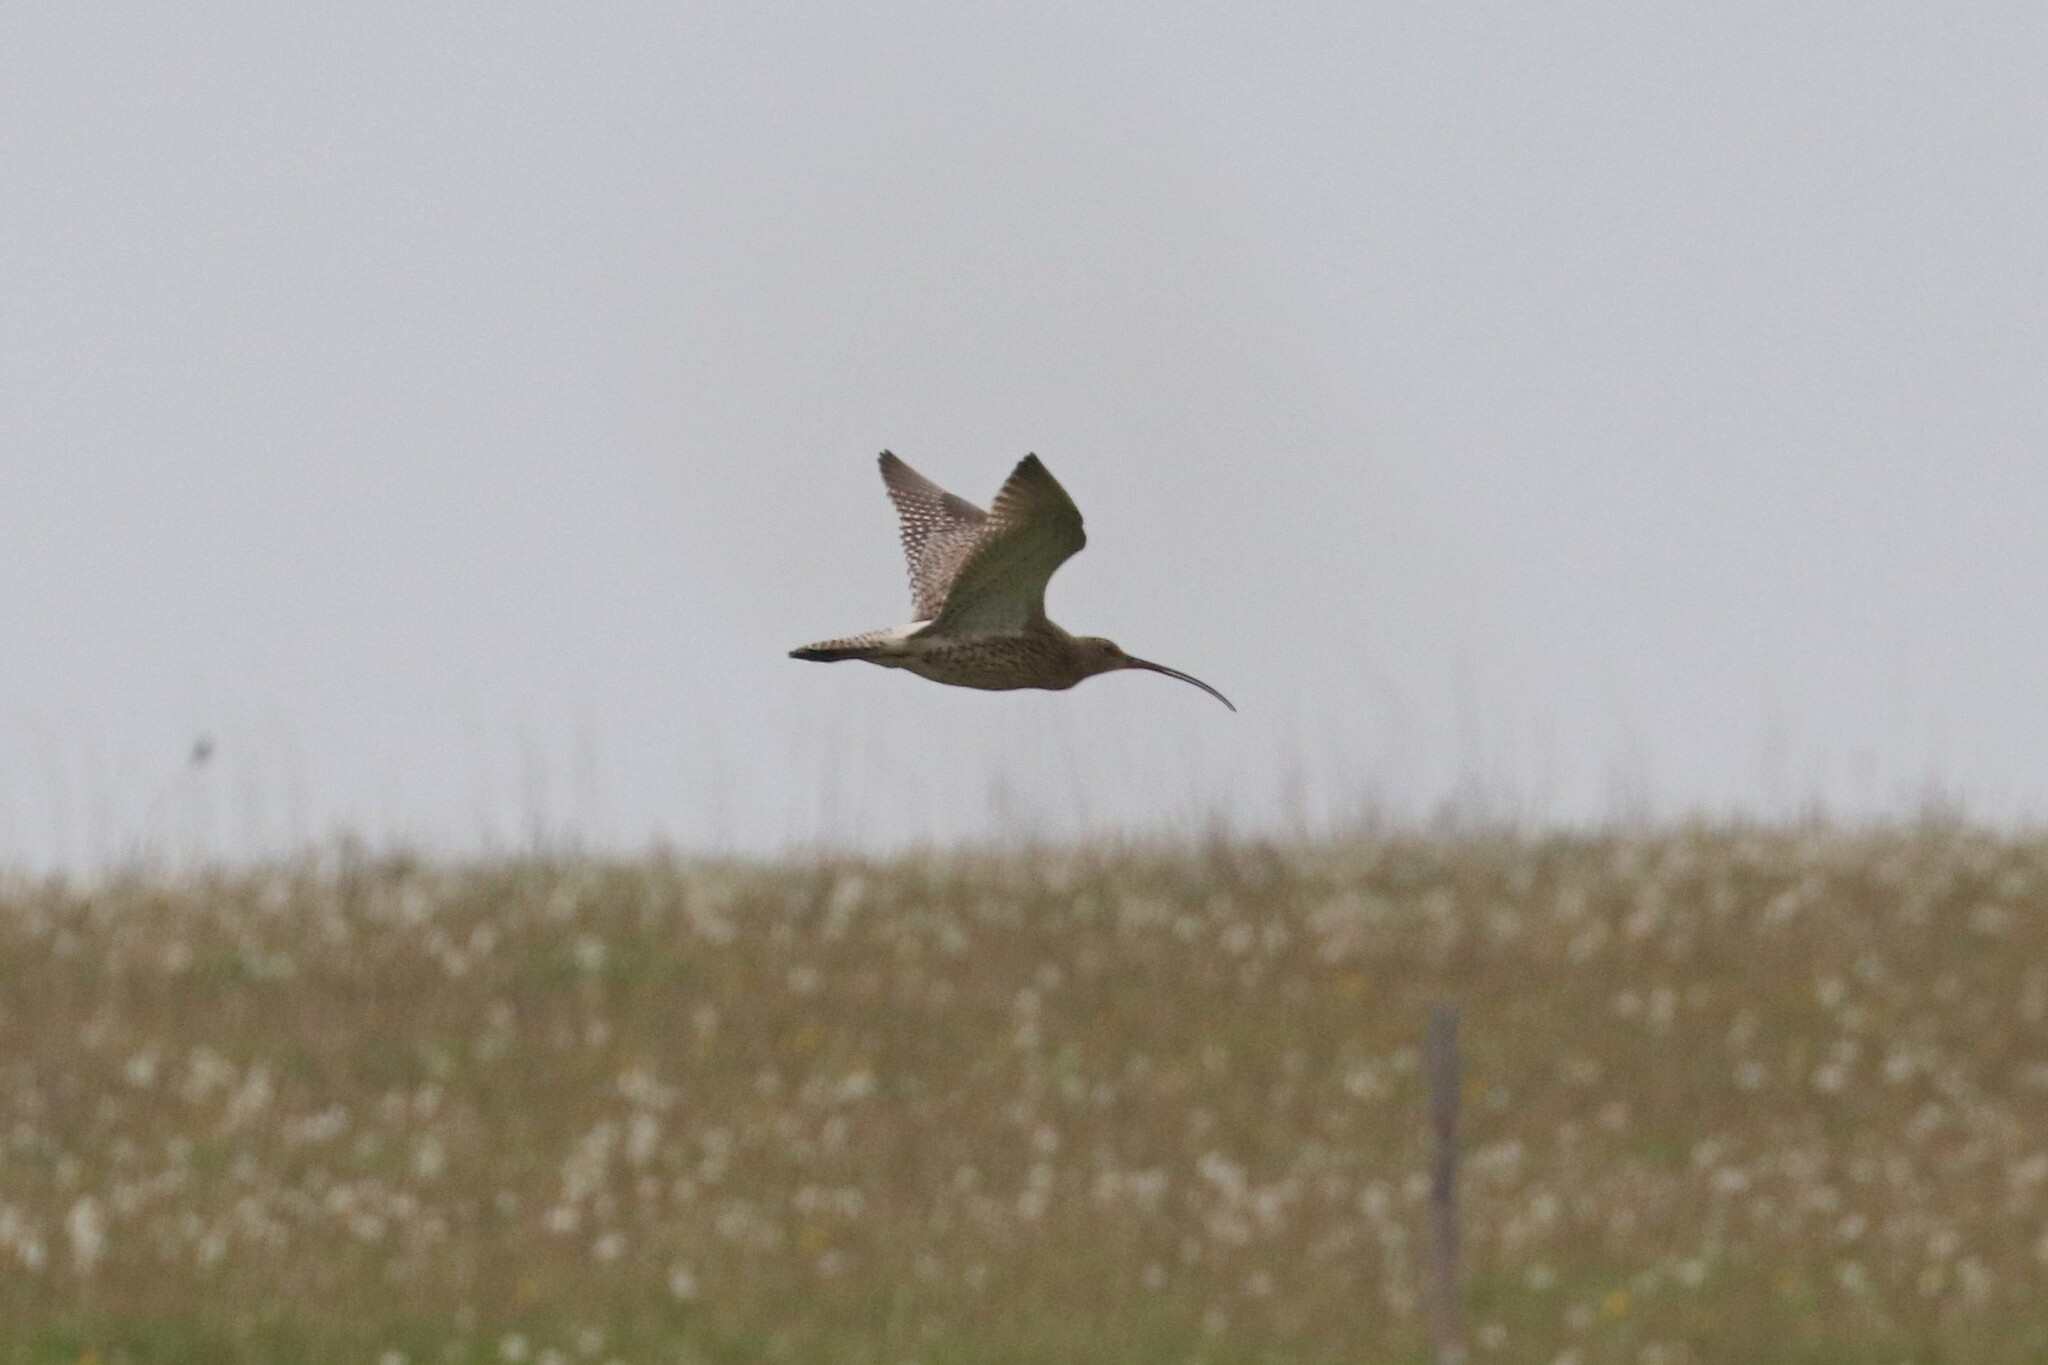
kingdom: Animalia
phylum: Chordata
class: Aves
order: Charadriiformes
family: Scolopacidae
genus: Numenius
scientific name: Numenius arquata
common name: Eurasian curlew
